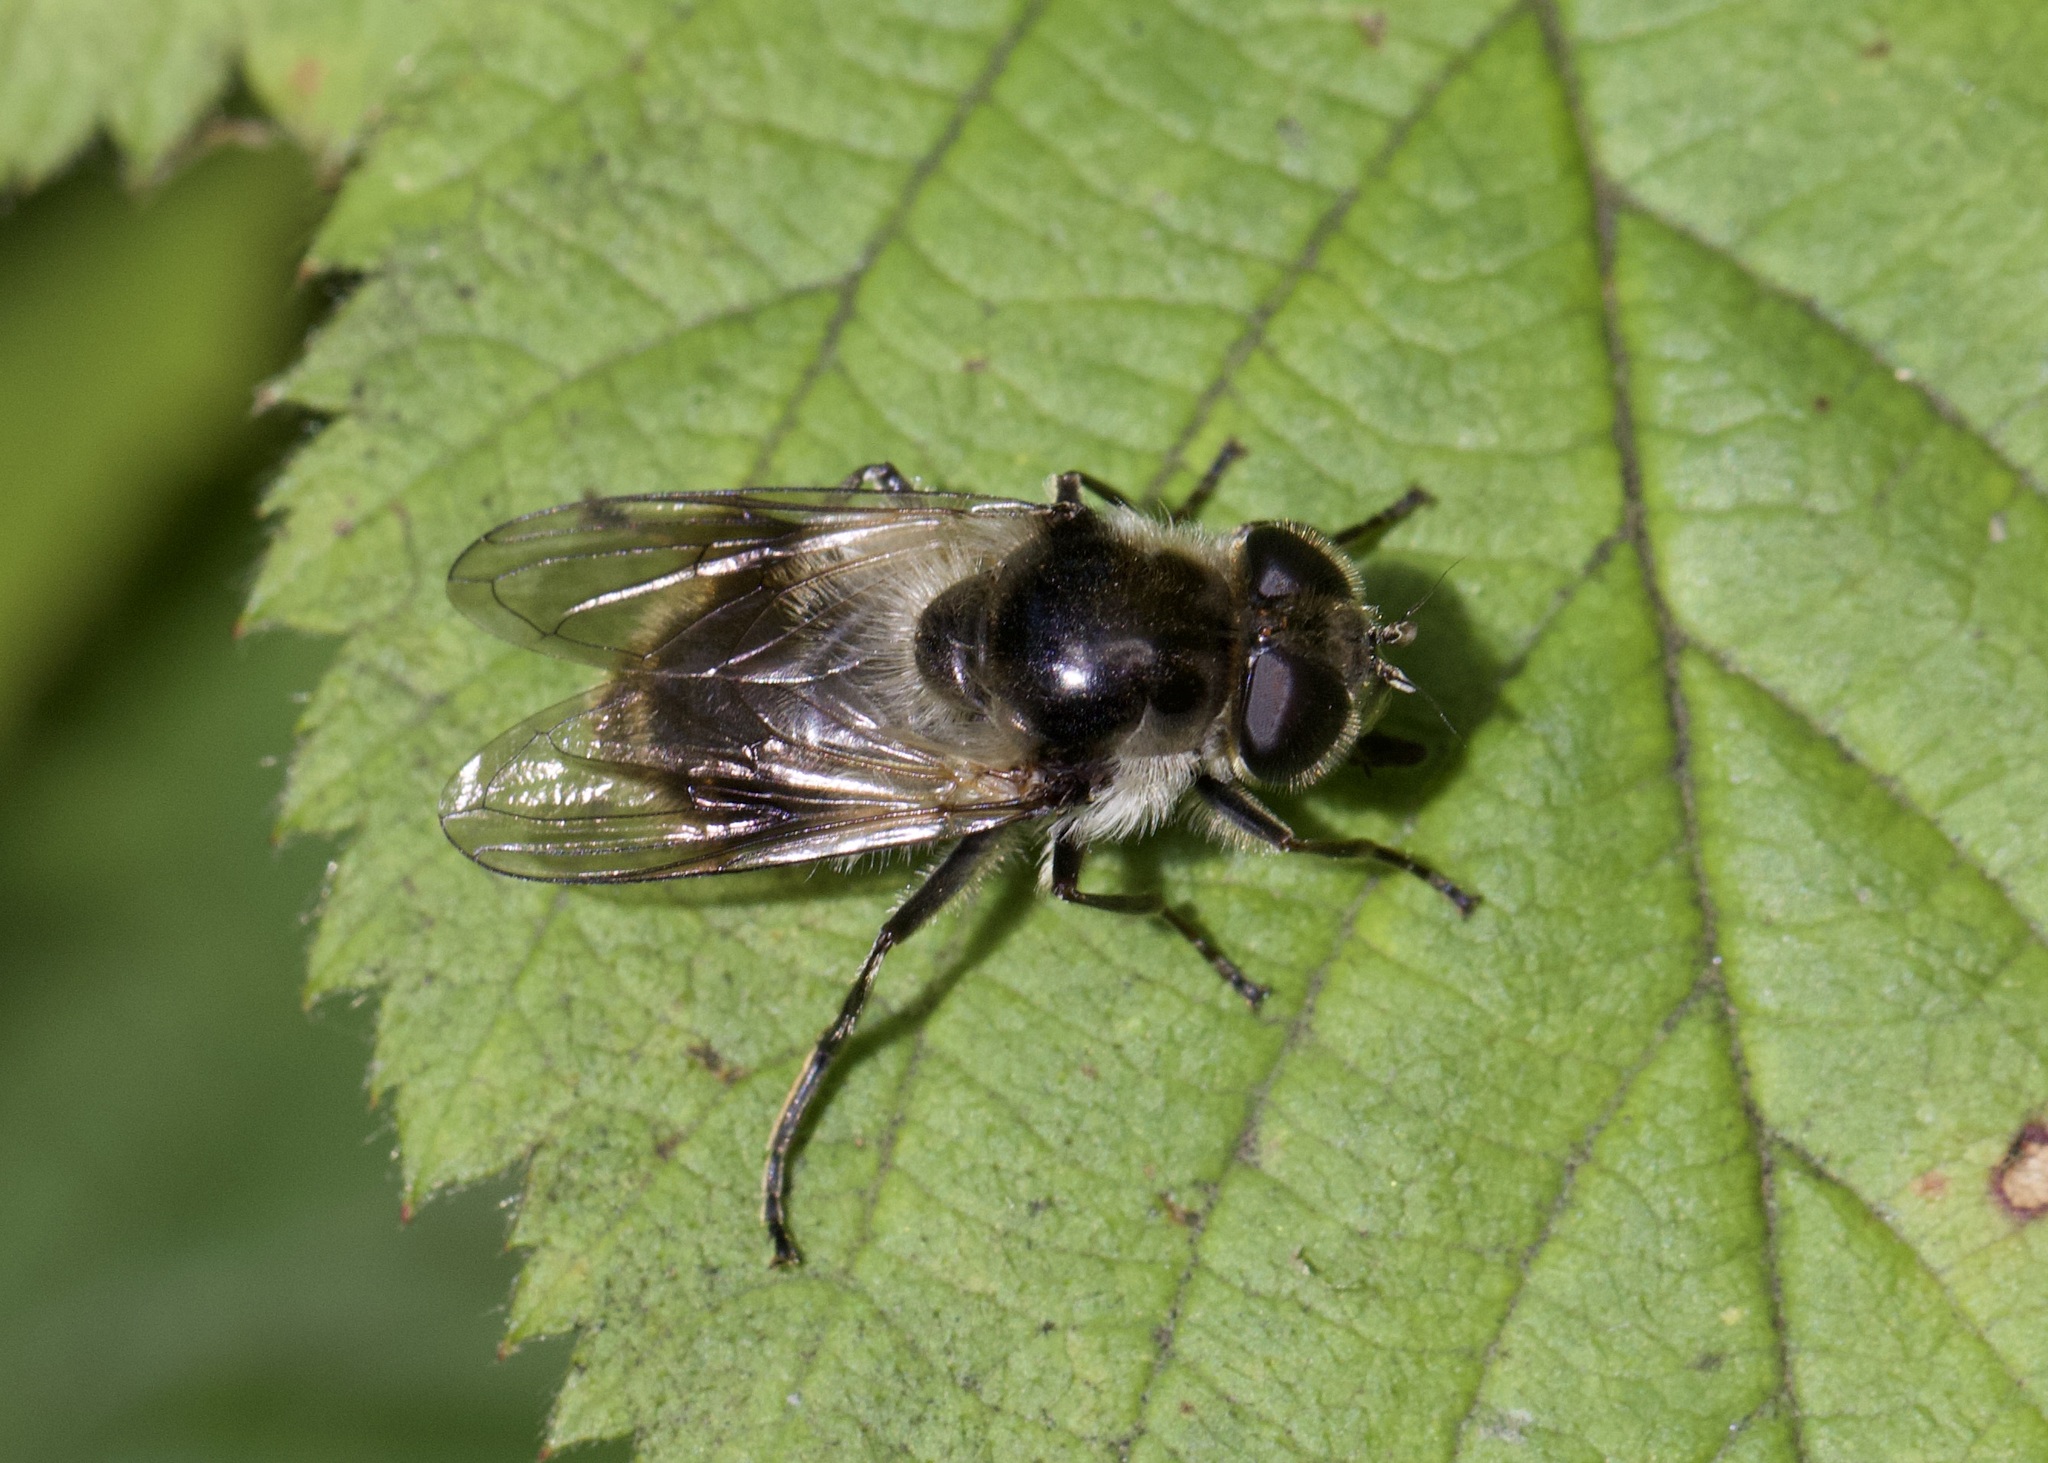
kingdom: Animalia
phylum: Arthropoda
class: Insecta
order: Diptera
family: Syrphidae
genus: Cheilosia
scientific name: Cheilosia illustrata
